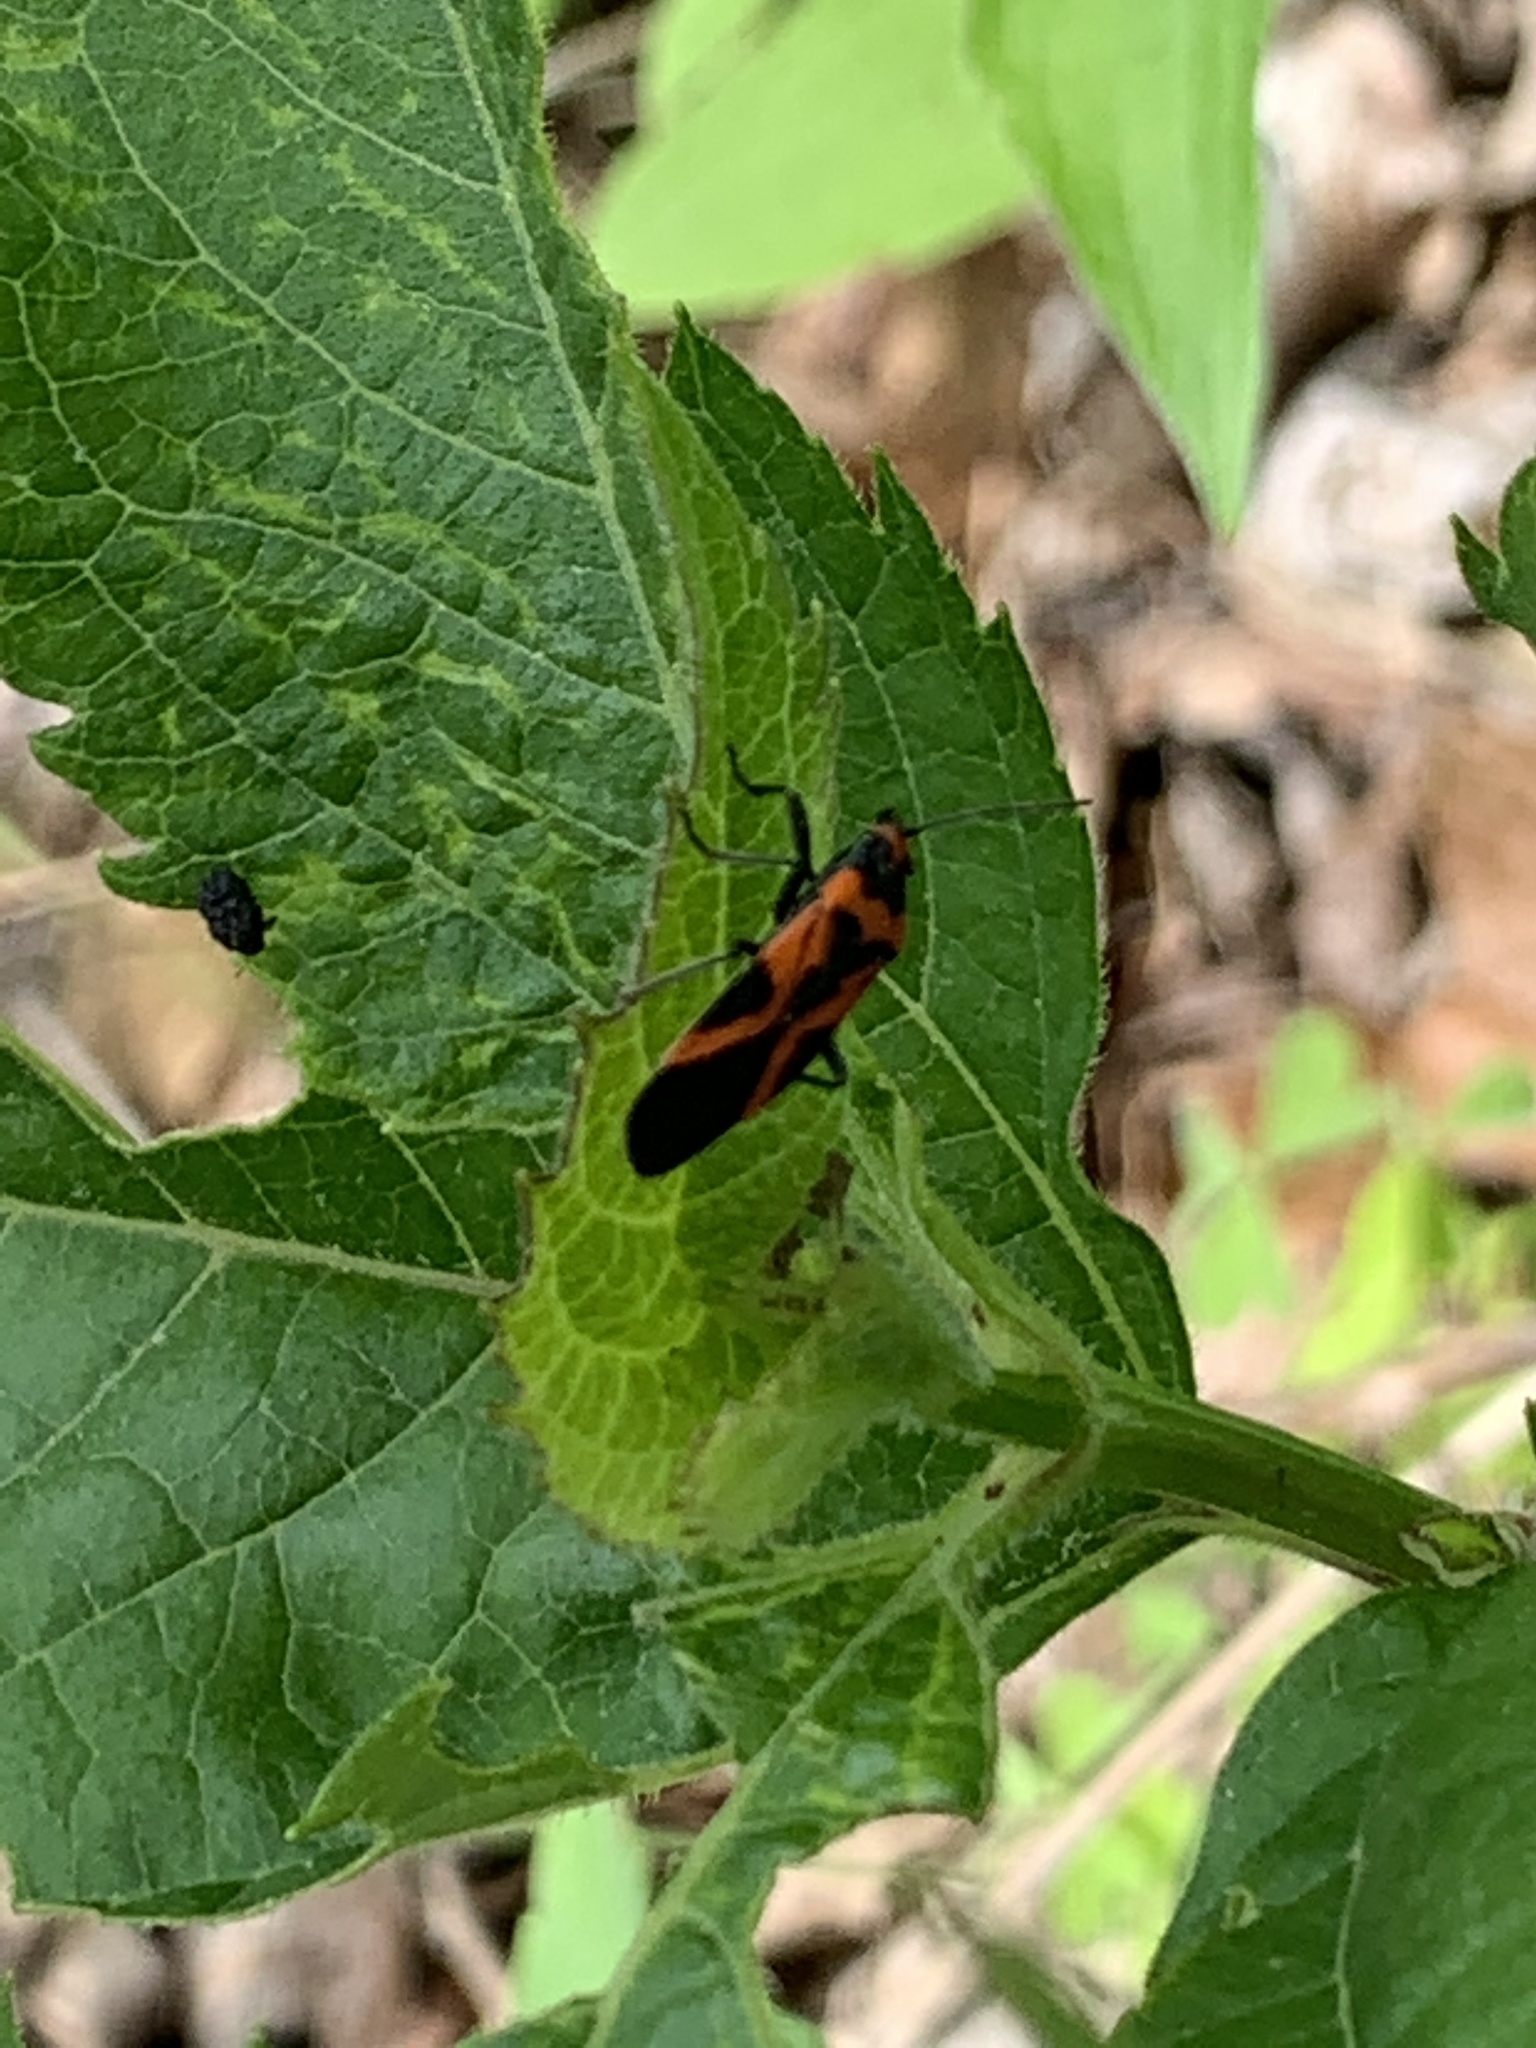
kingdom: Animalia
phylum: Arthropoda
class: Insecta
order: Hemiptera
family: Lygaeidae
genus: Lygaeus
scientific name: Lygaeus turcicus
